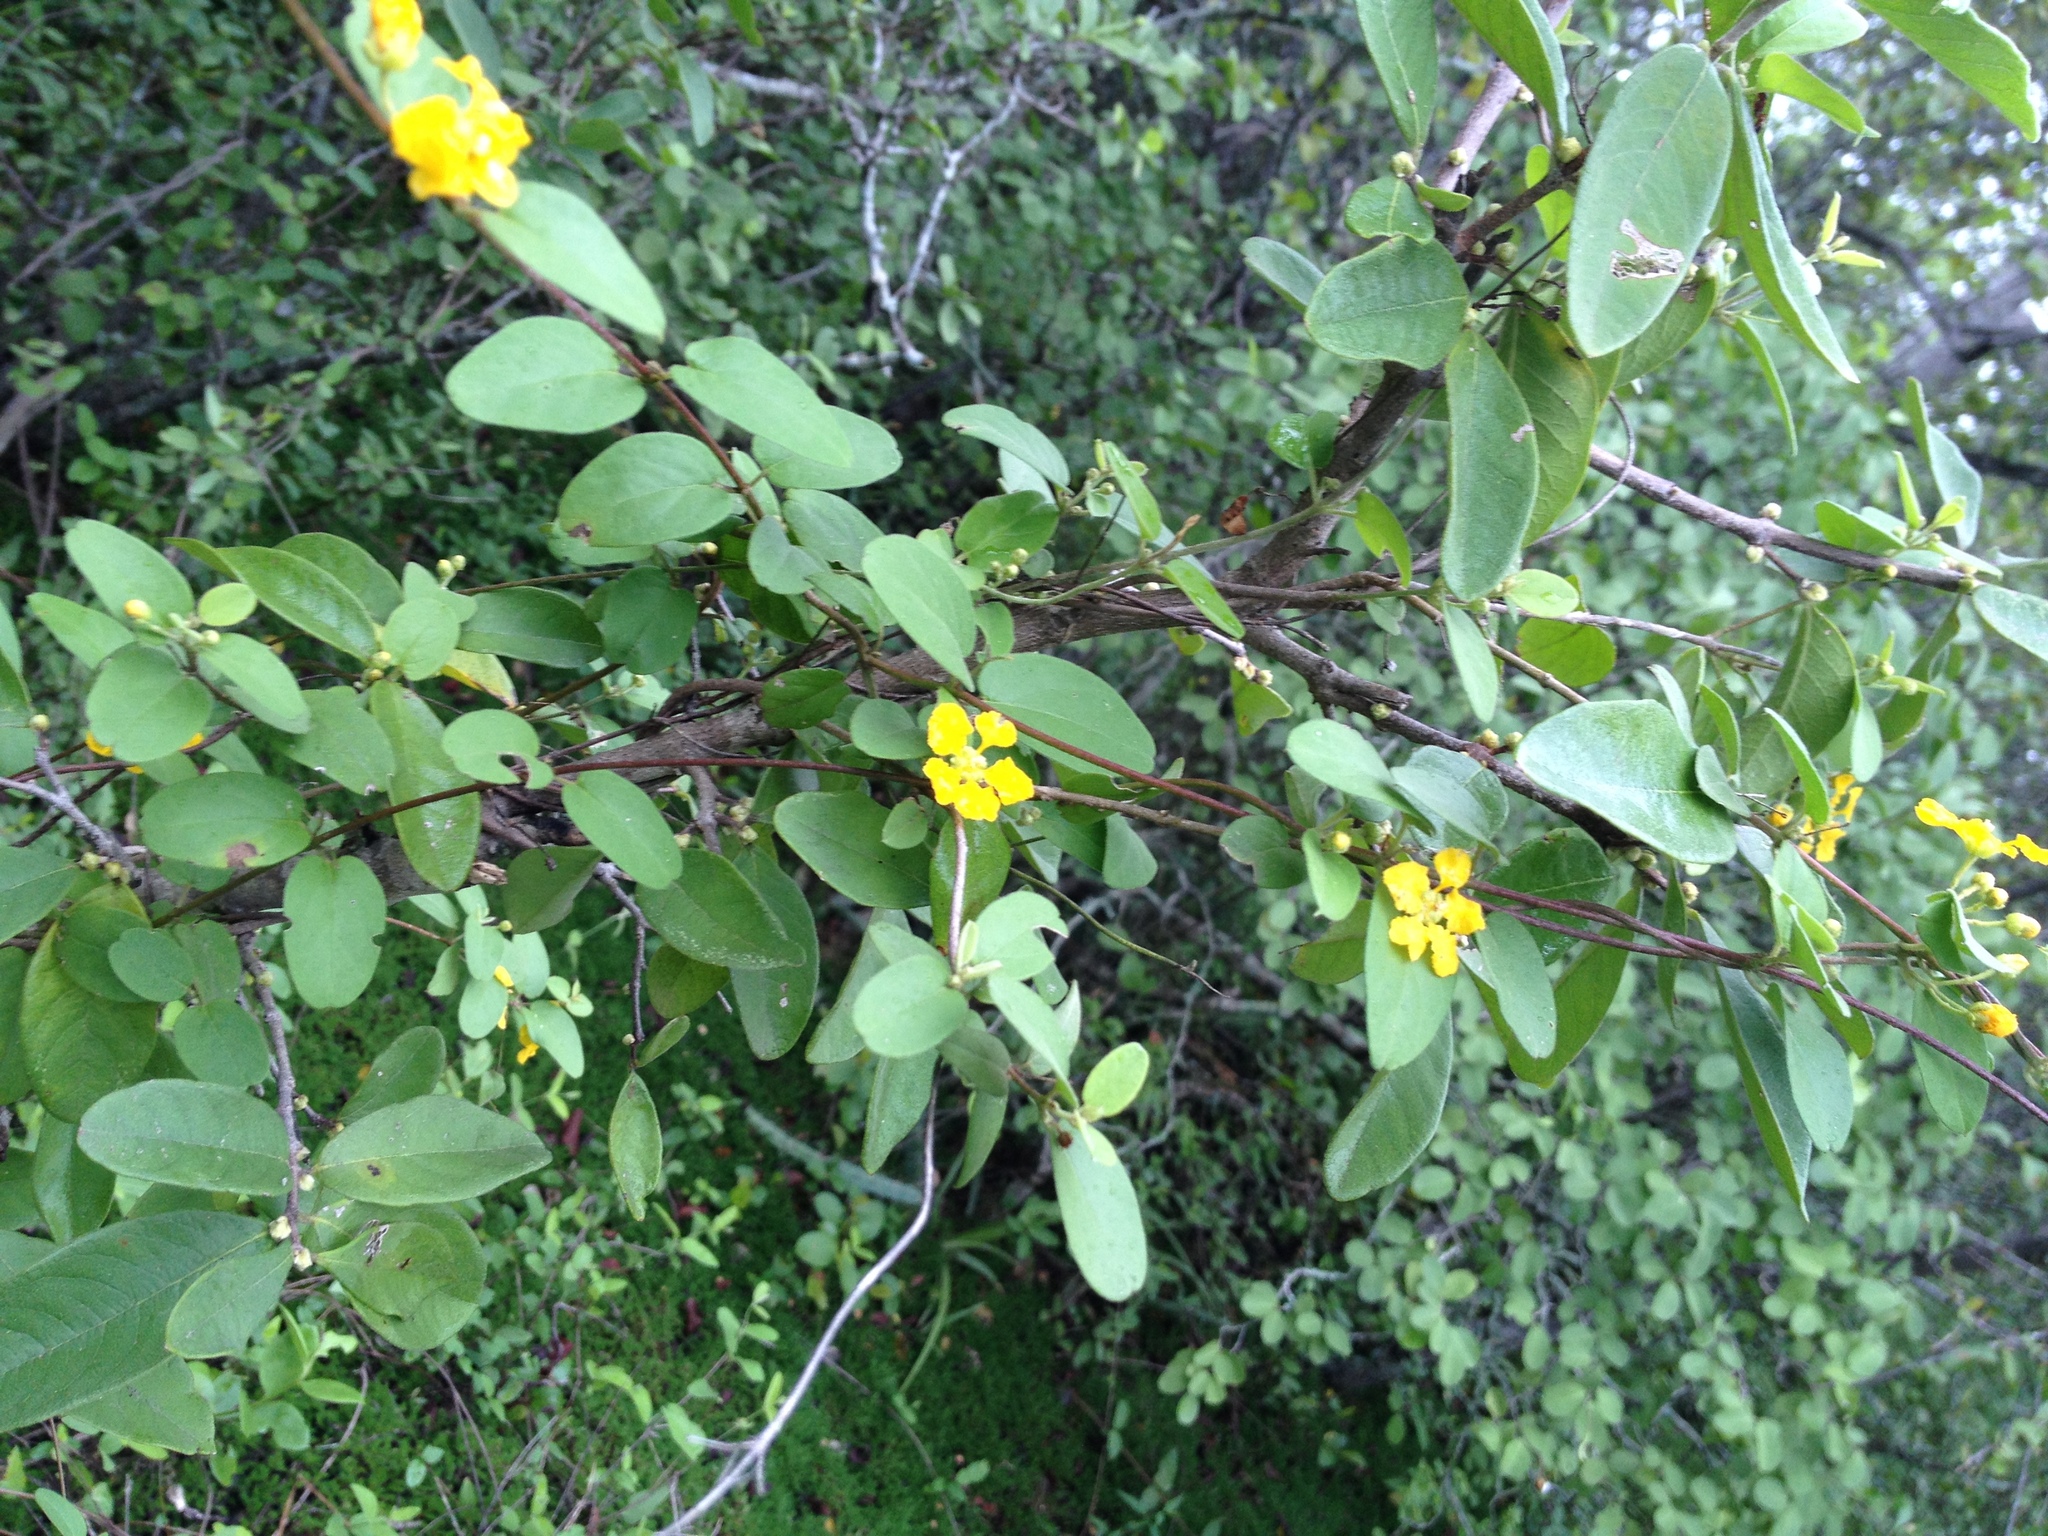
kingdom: Plantae
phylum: Tracheophyta
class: Magnoliopsida
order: Malpighiales
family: Malpighiaceae
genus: Janusia
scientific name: Janusia guaranitica
